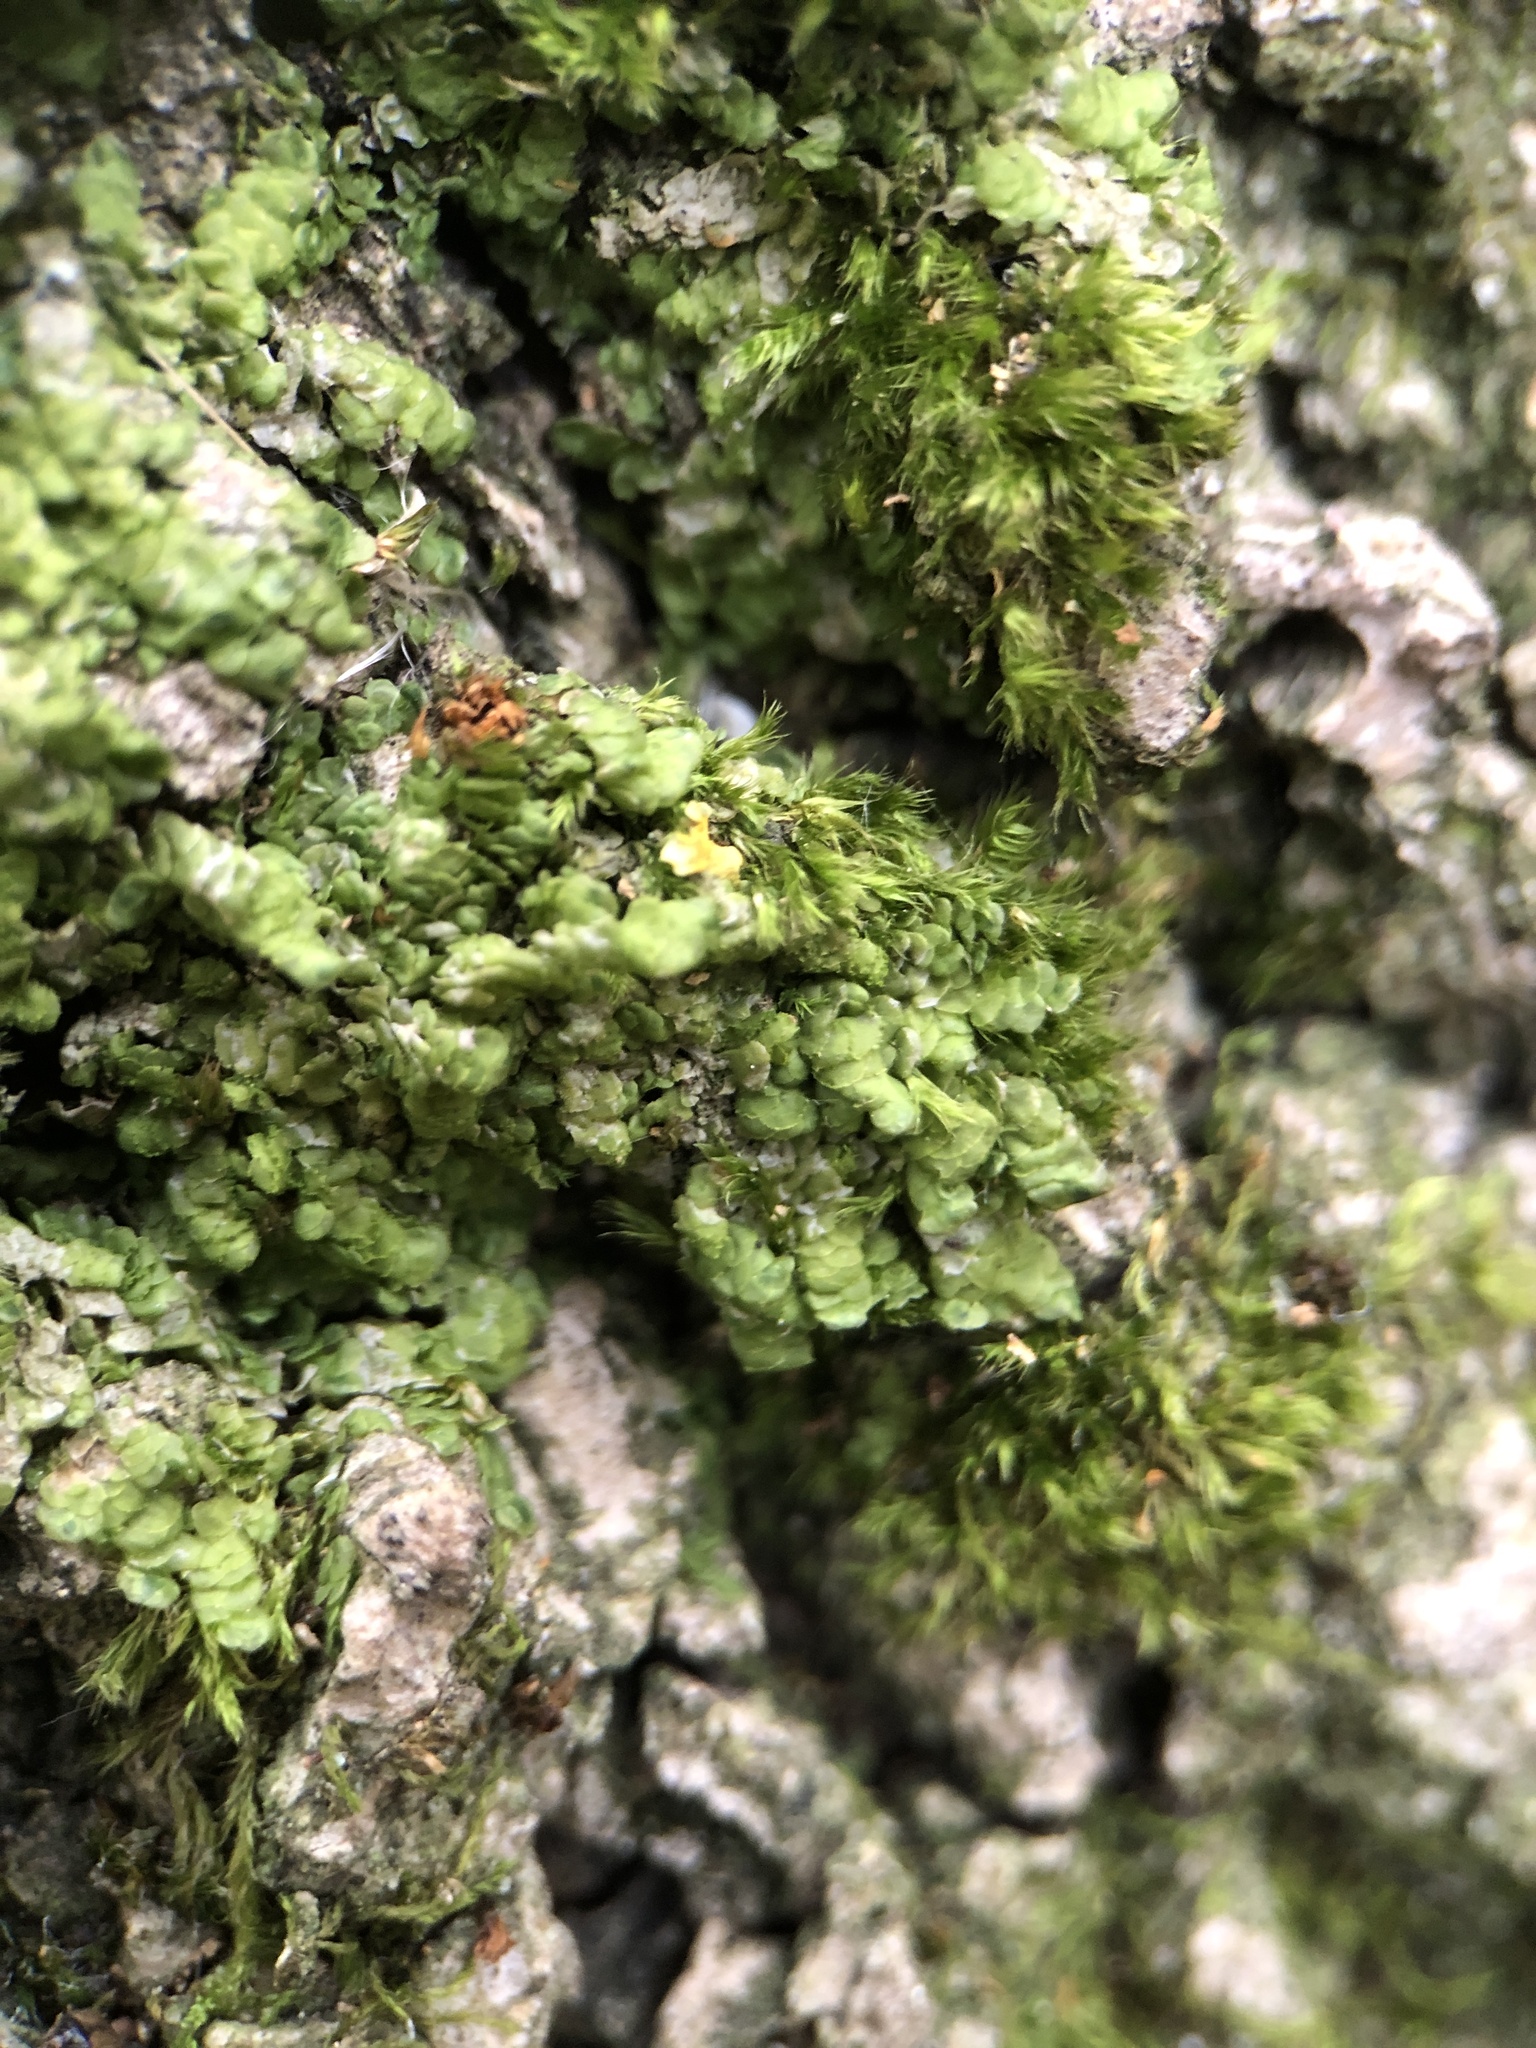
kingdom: Plantae
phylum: Marchantiophyta
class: Jungermanniopsida
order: Porellales
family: Radulaceae
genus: Radula
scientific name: Radula complanata
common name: Flat-leaved scalewort
